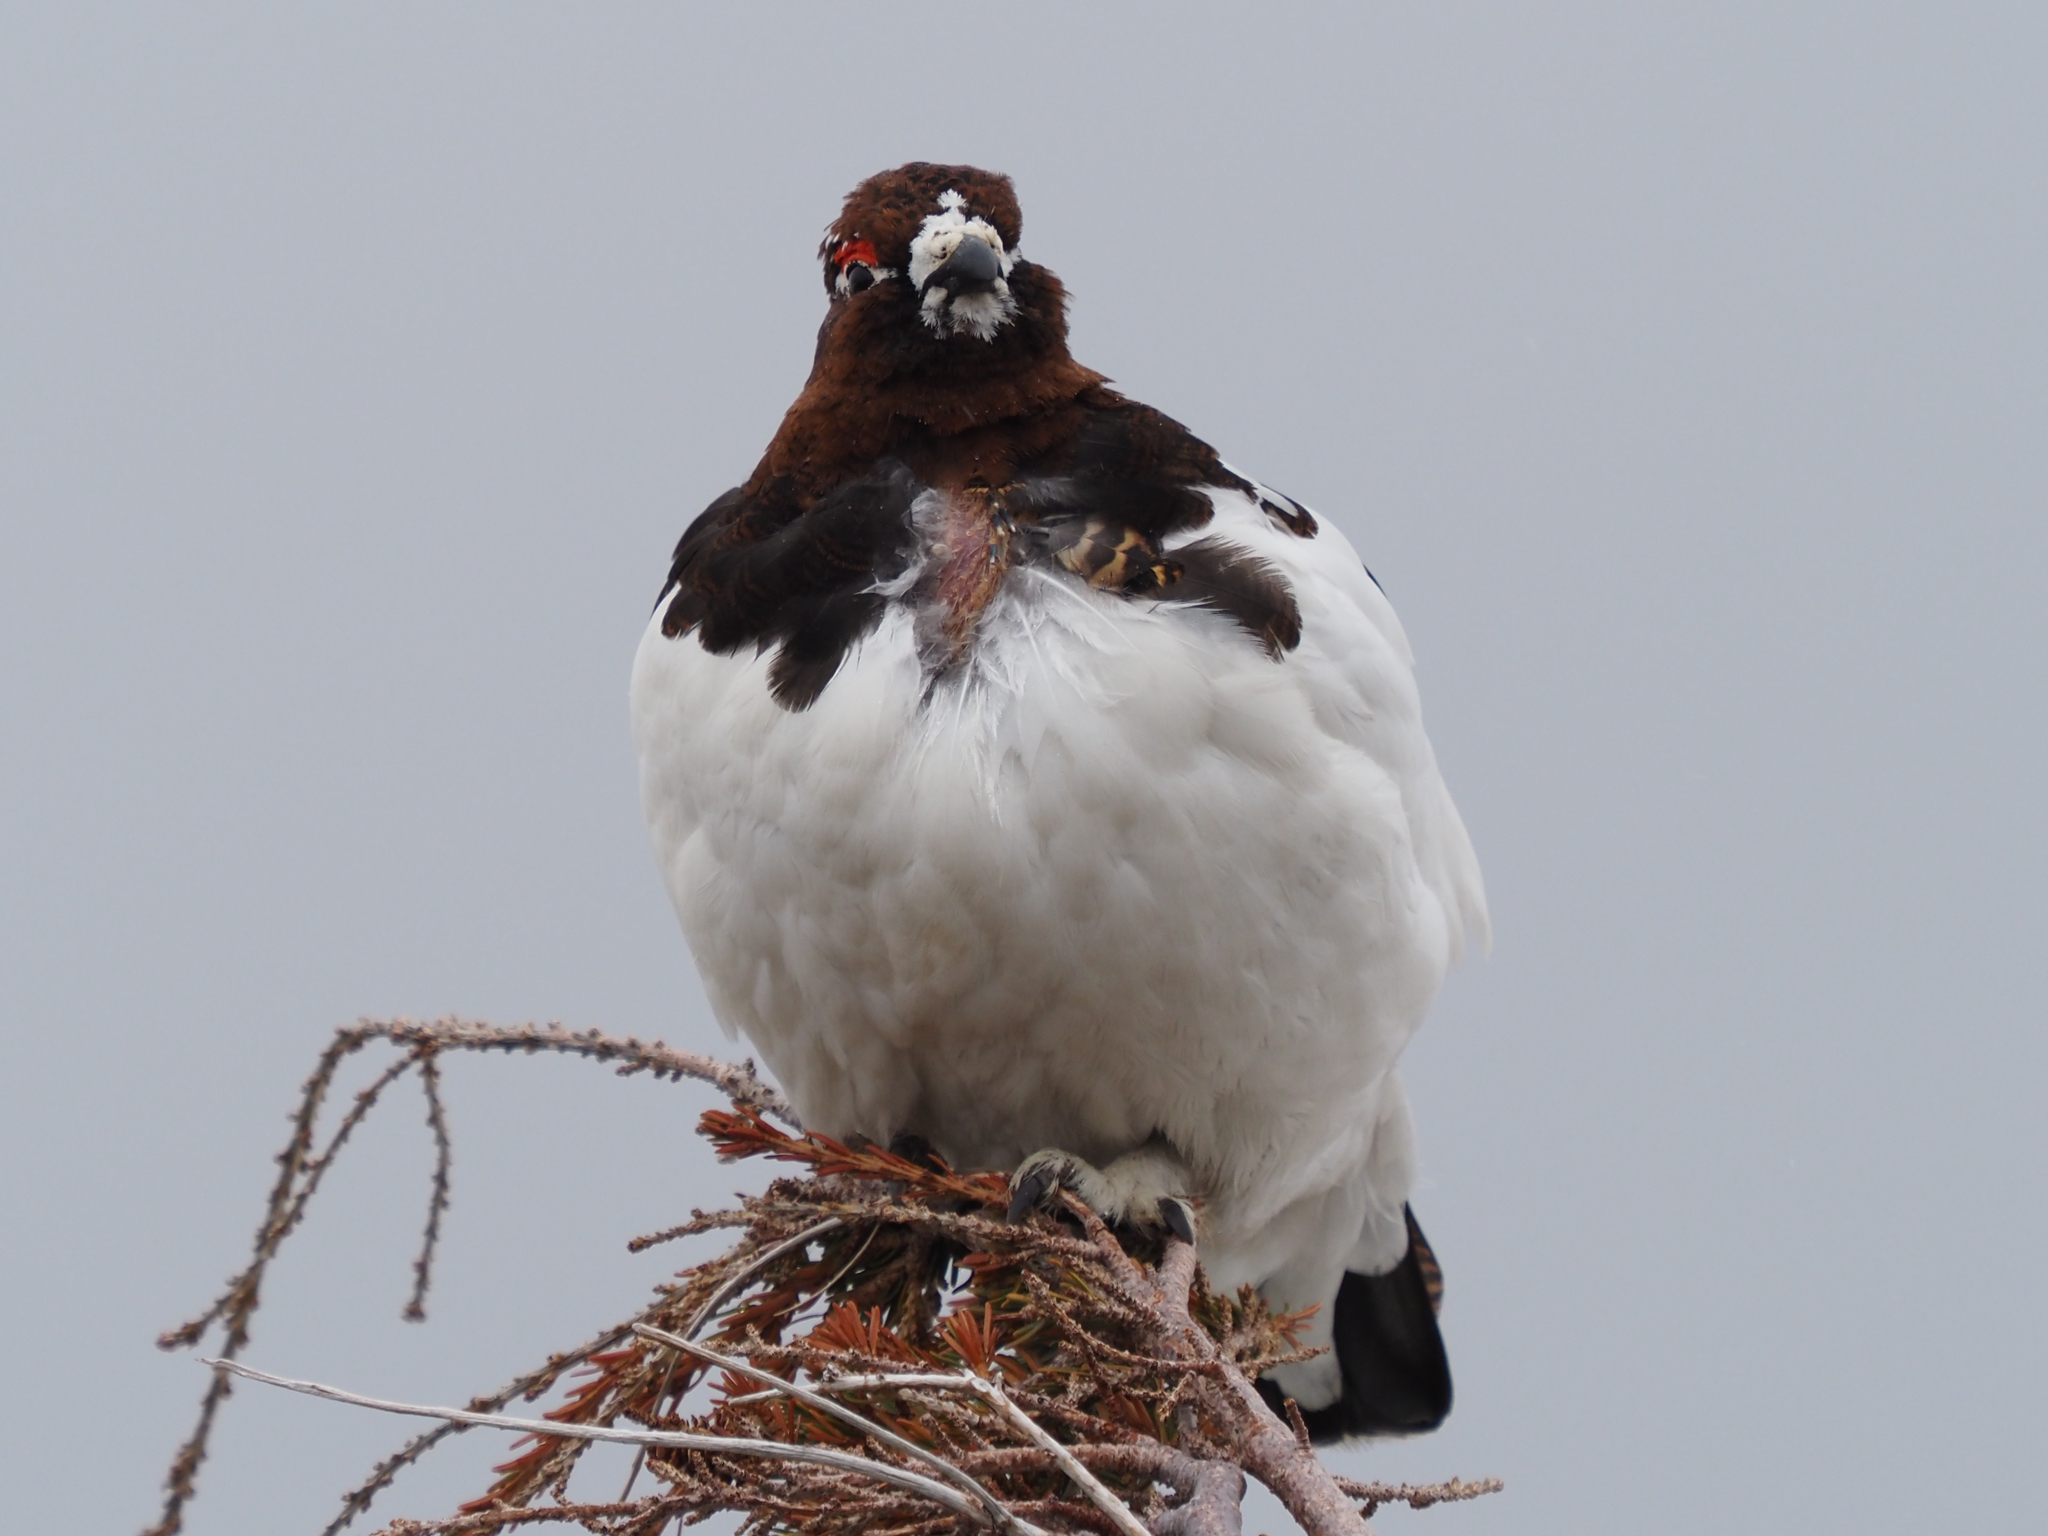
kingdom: Animalia
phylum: Chordata
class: Aves
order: Galliformes
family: Phasianidae
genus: Lagopus
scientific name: Lagopus lagopus
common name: Willow ptarmigan
